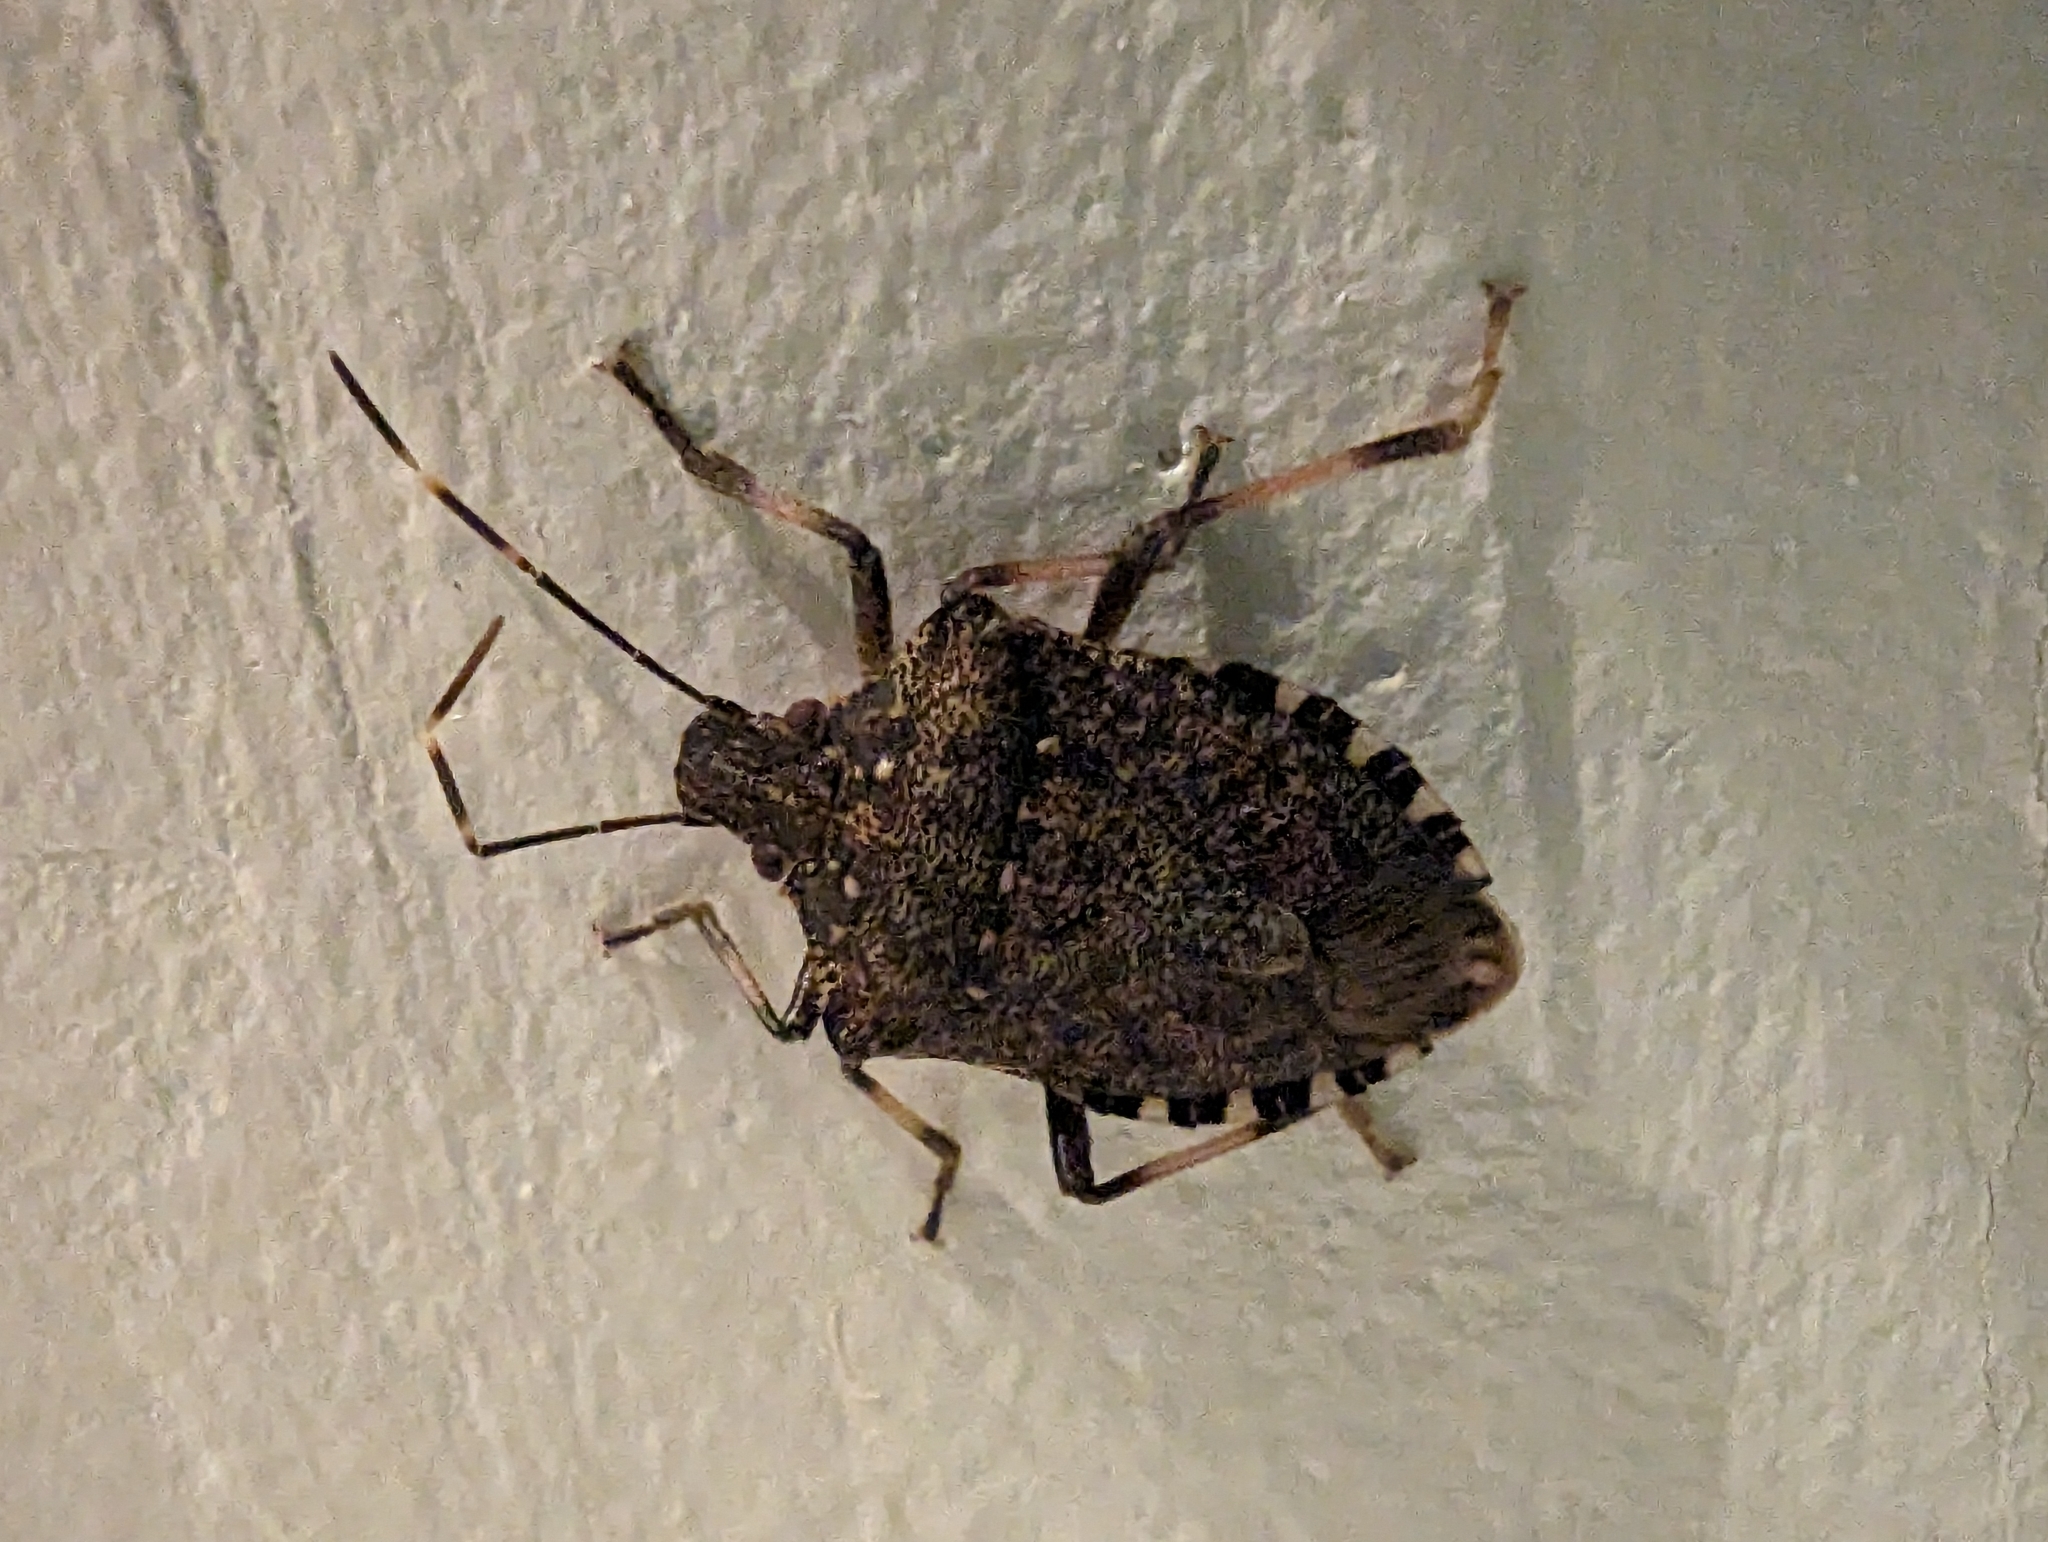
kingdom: Animalia
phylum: Arthropoda
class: Insecta
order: Hemiptera
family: Pentatomidae
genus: Halyomorpha
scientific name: Halyomorpha halys
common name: Brown marmorated stink bug
